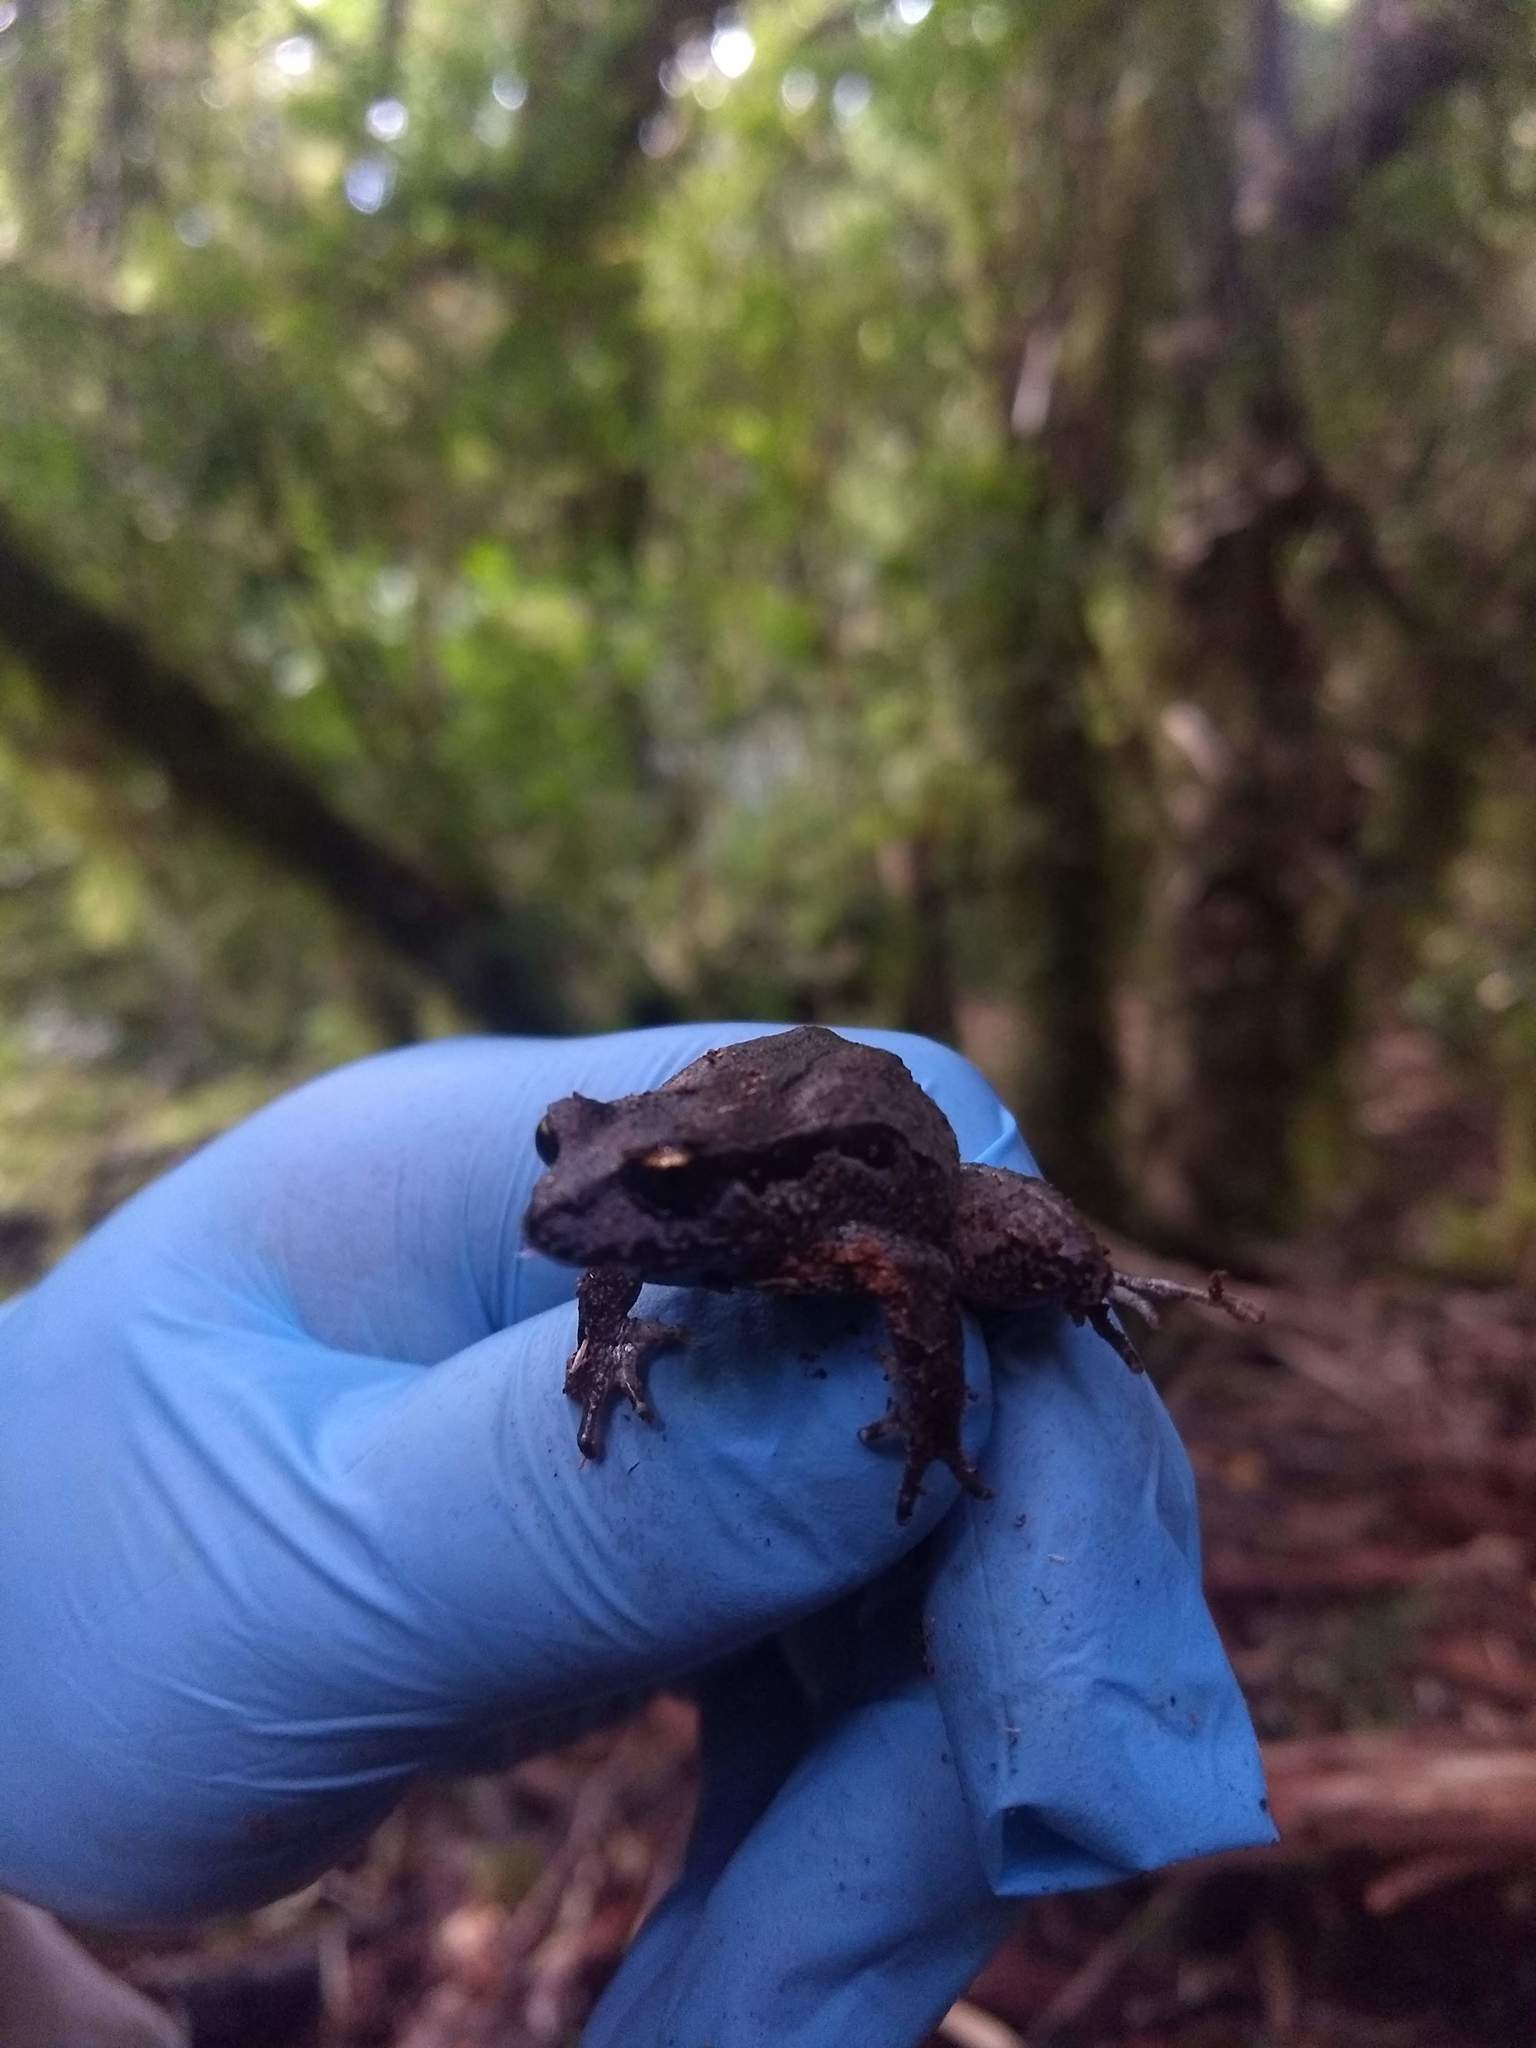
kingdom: Animalia
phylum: Chordata
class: Amphibia
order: Anura
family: Alsodidae
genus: Eupsophus
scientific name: Eupsophus calcaratus
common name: Chiloe island ground frog
